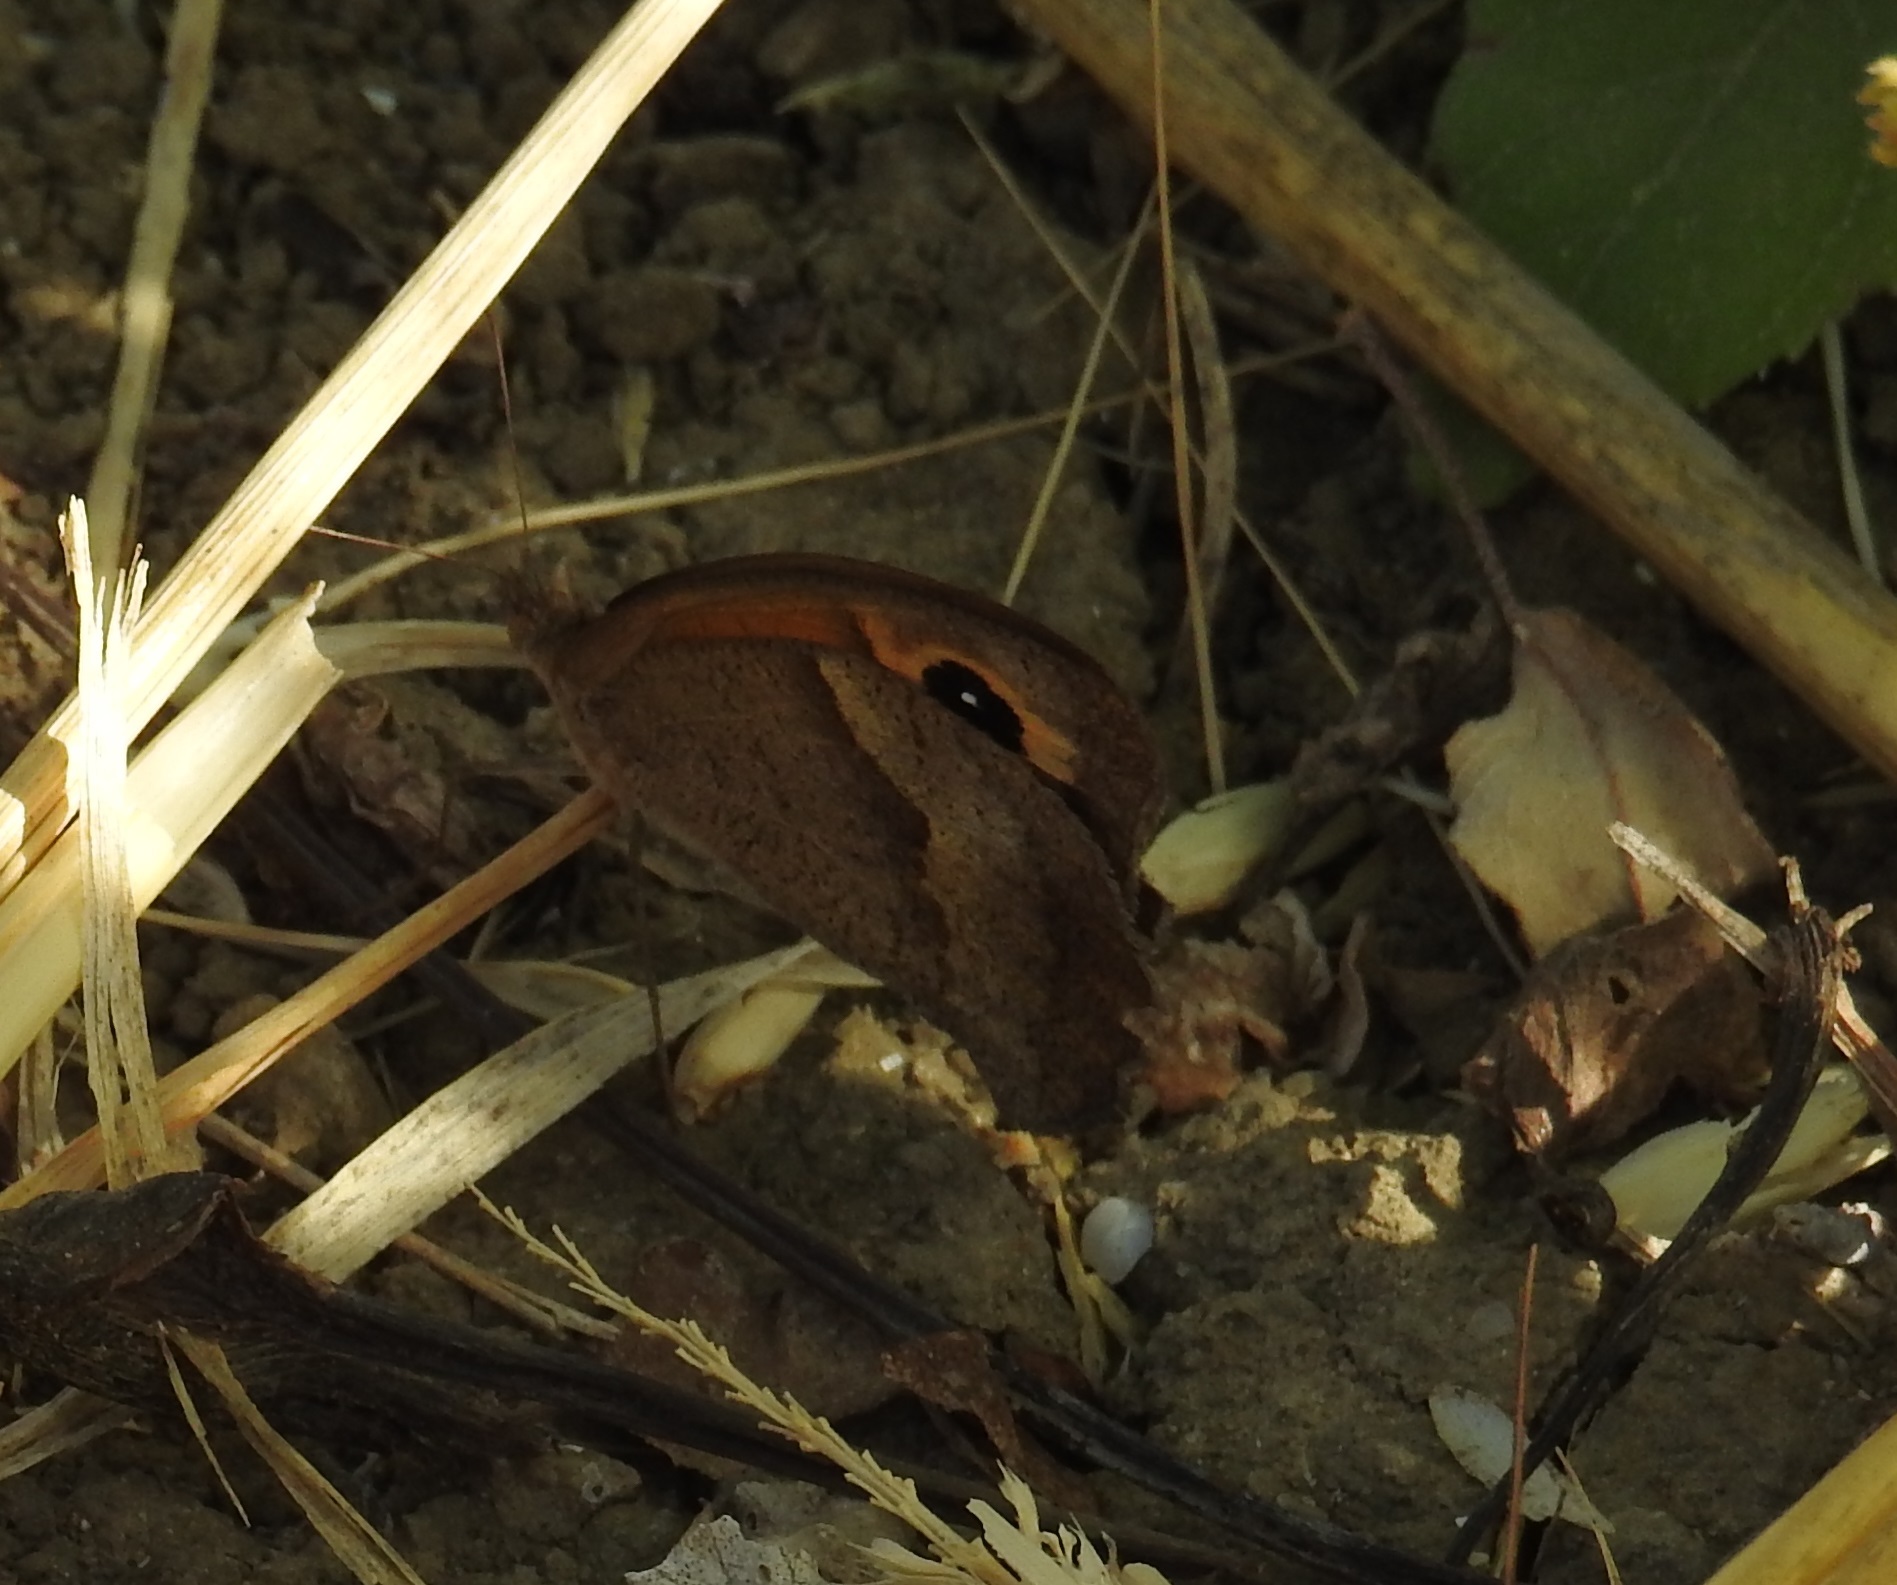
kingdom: Animalia
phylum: Arthropoda
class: Insecta
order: Lepidoptera
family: Nymphalidae
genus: Maniola
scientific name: Maniola jurtina
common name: Meadow brown
